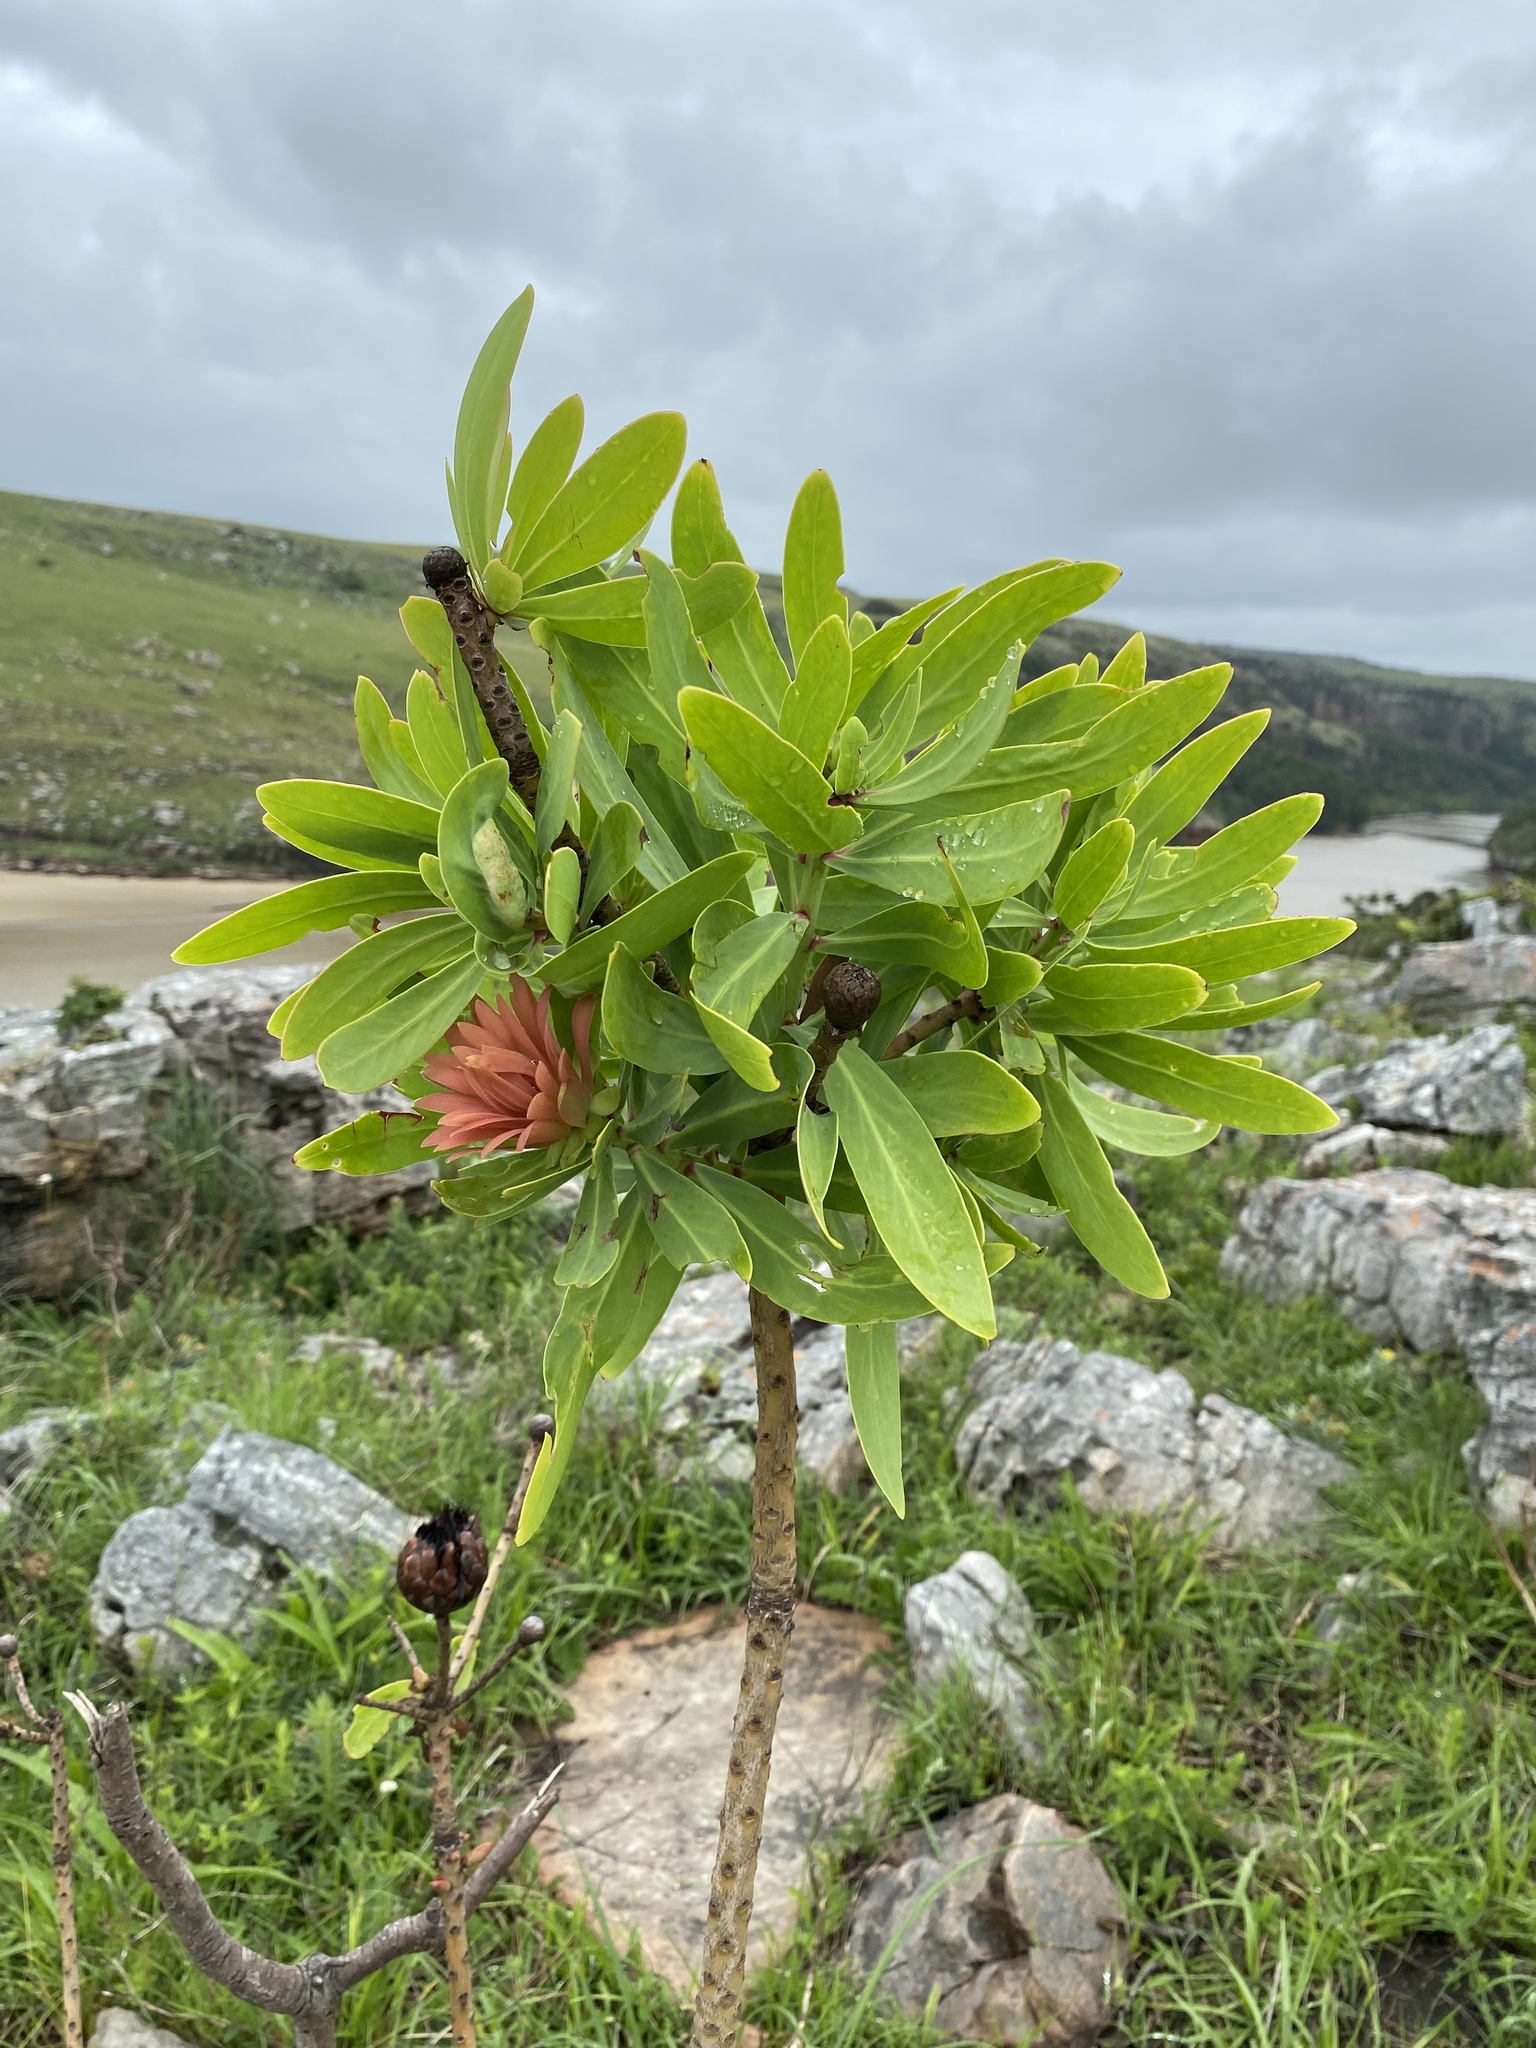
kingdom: Plantae
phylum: Tracheophyta
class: Magnoliopsida
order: Proteales
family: Proteaceae
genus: Protea
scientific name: Protea caffra
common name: Common sugarbush
